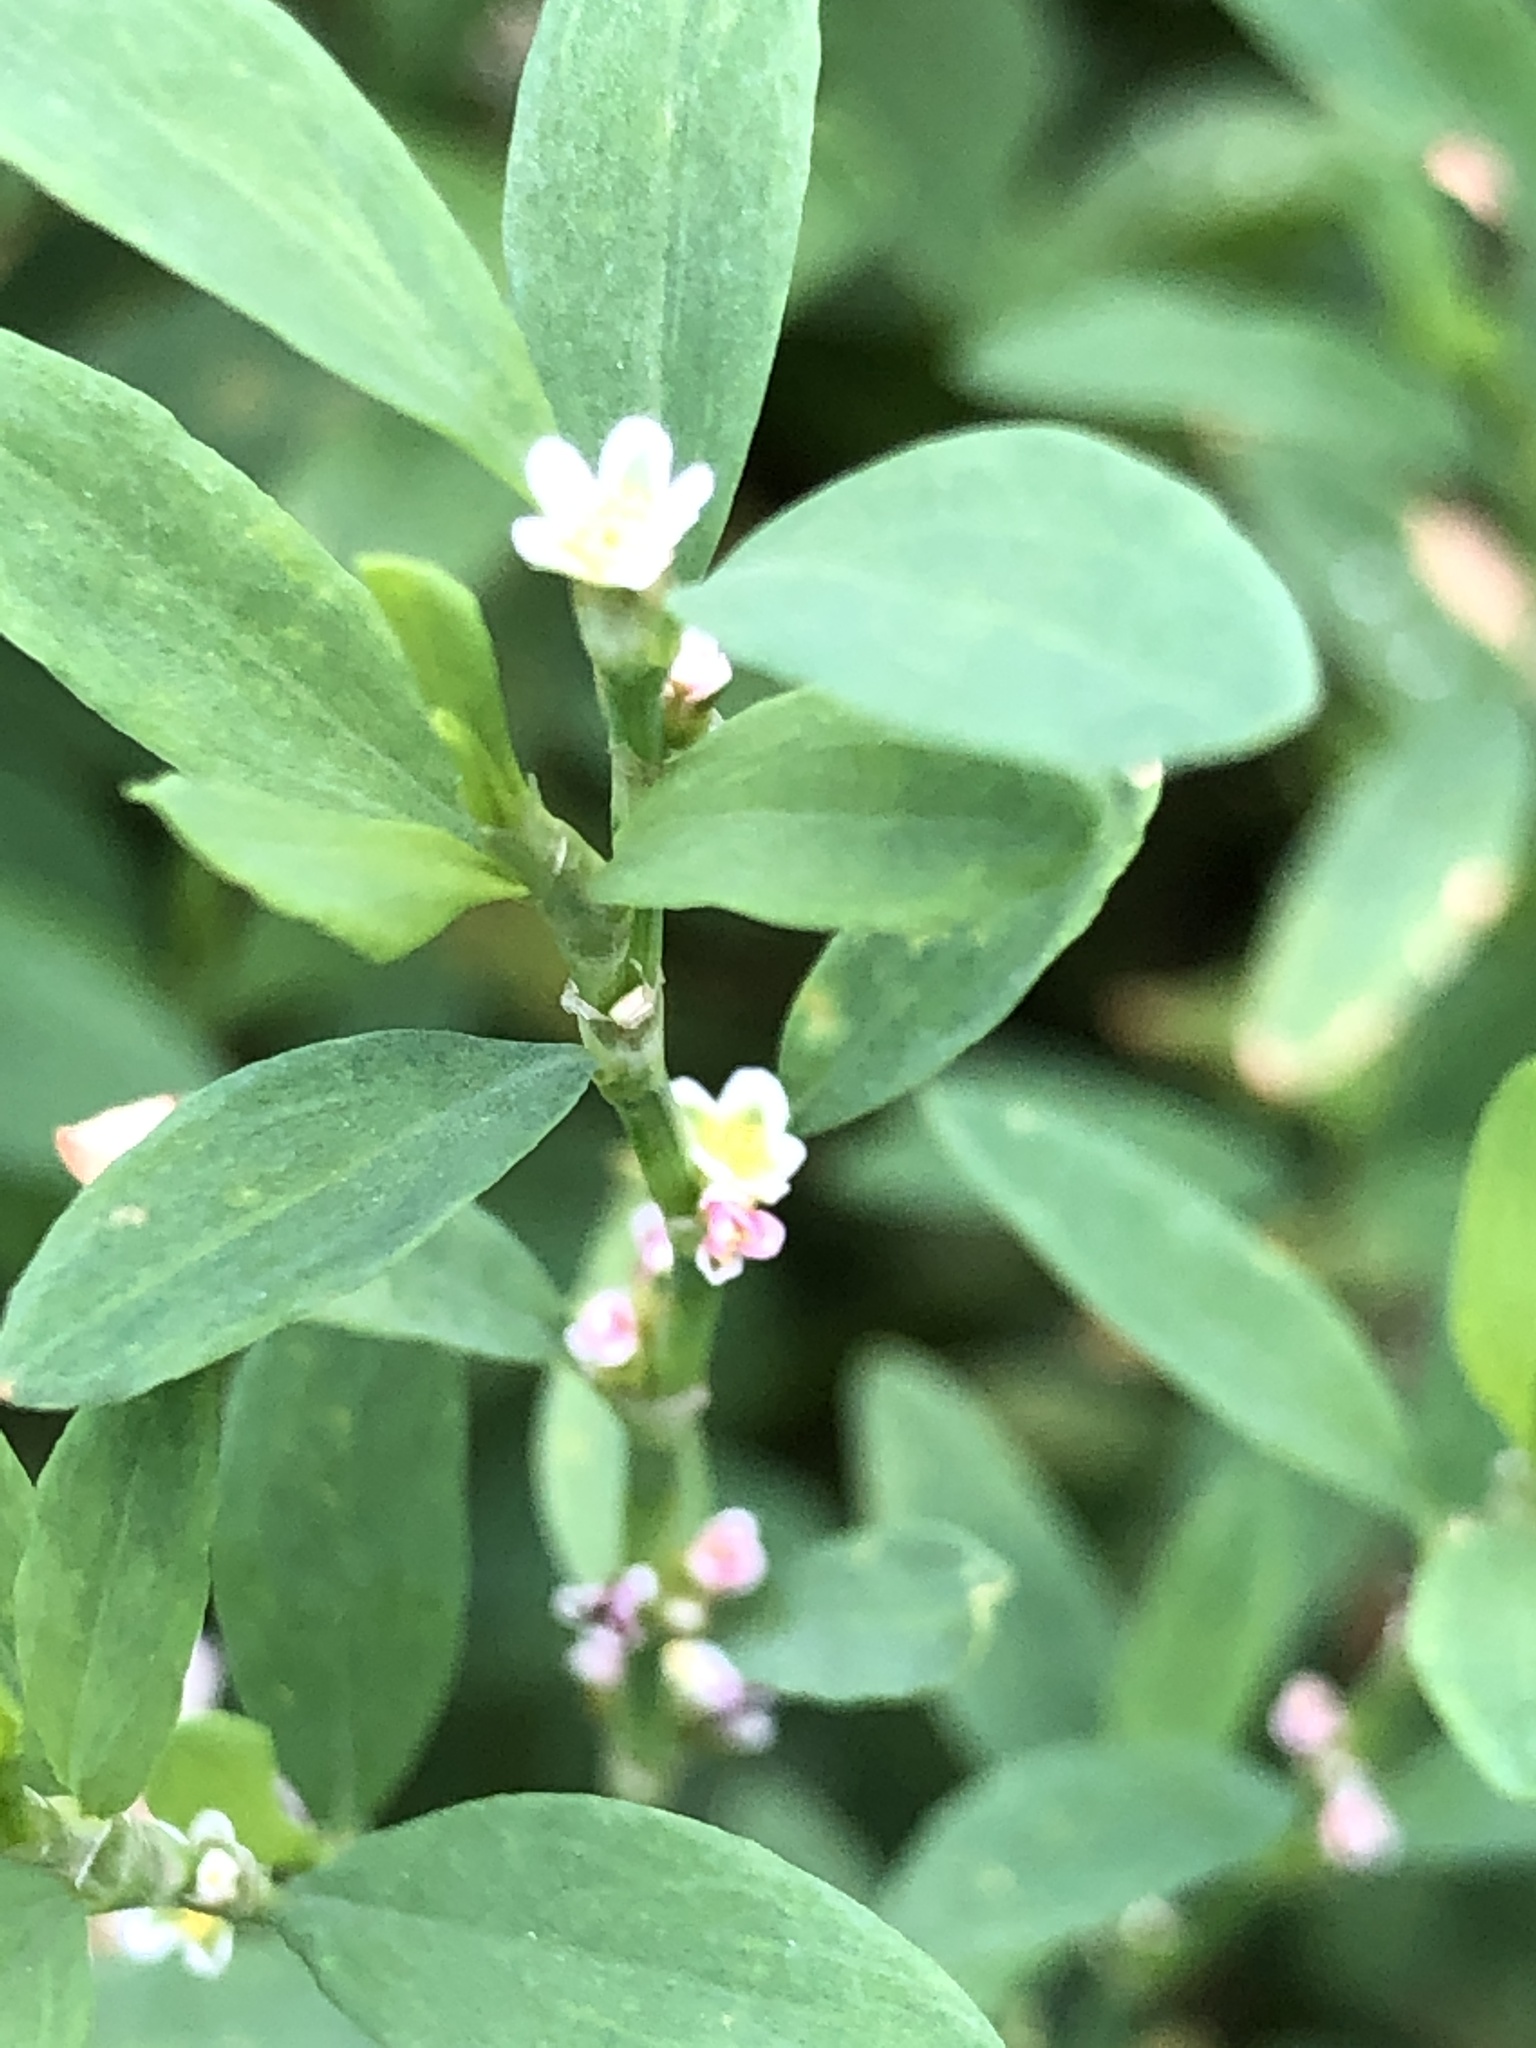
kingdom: Plantae
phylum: Tracheophyta
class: Magnoliopsida
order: Caryophyllales
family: Polygonaceae
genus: Polygonum
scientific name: Polygonum
